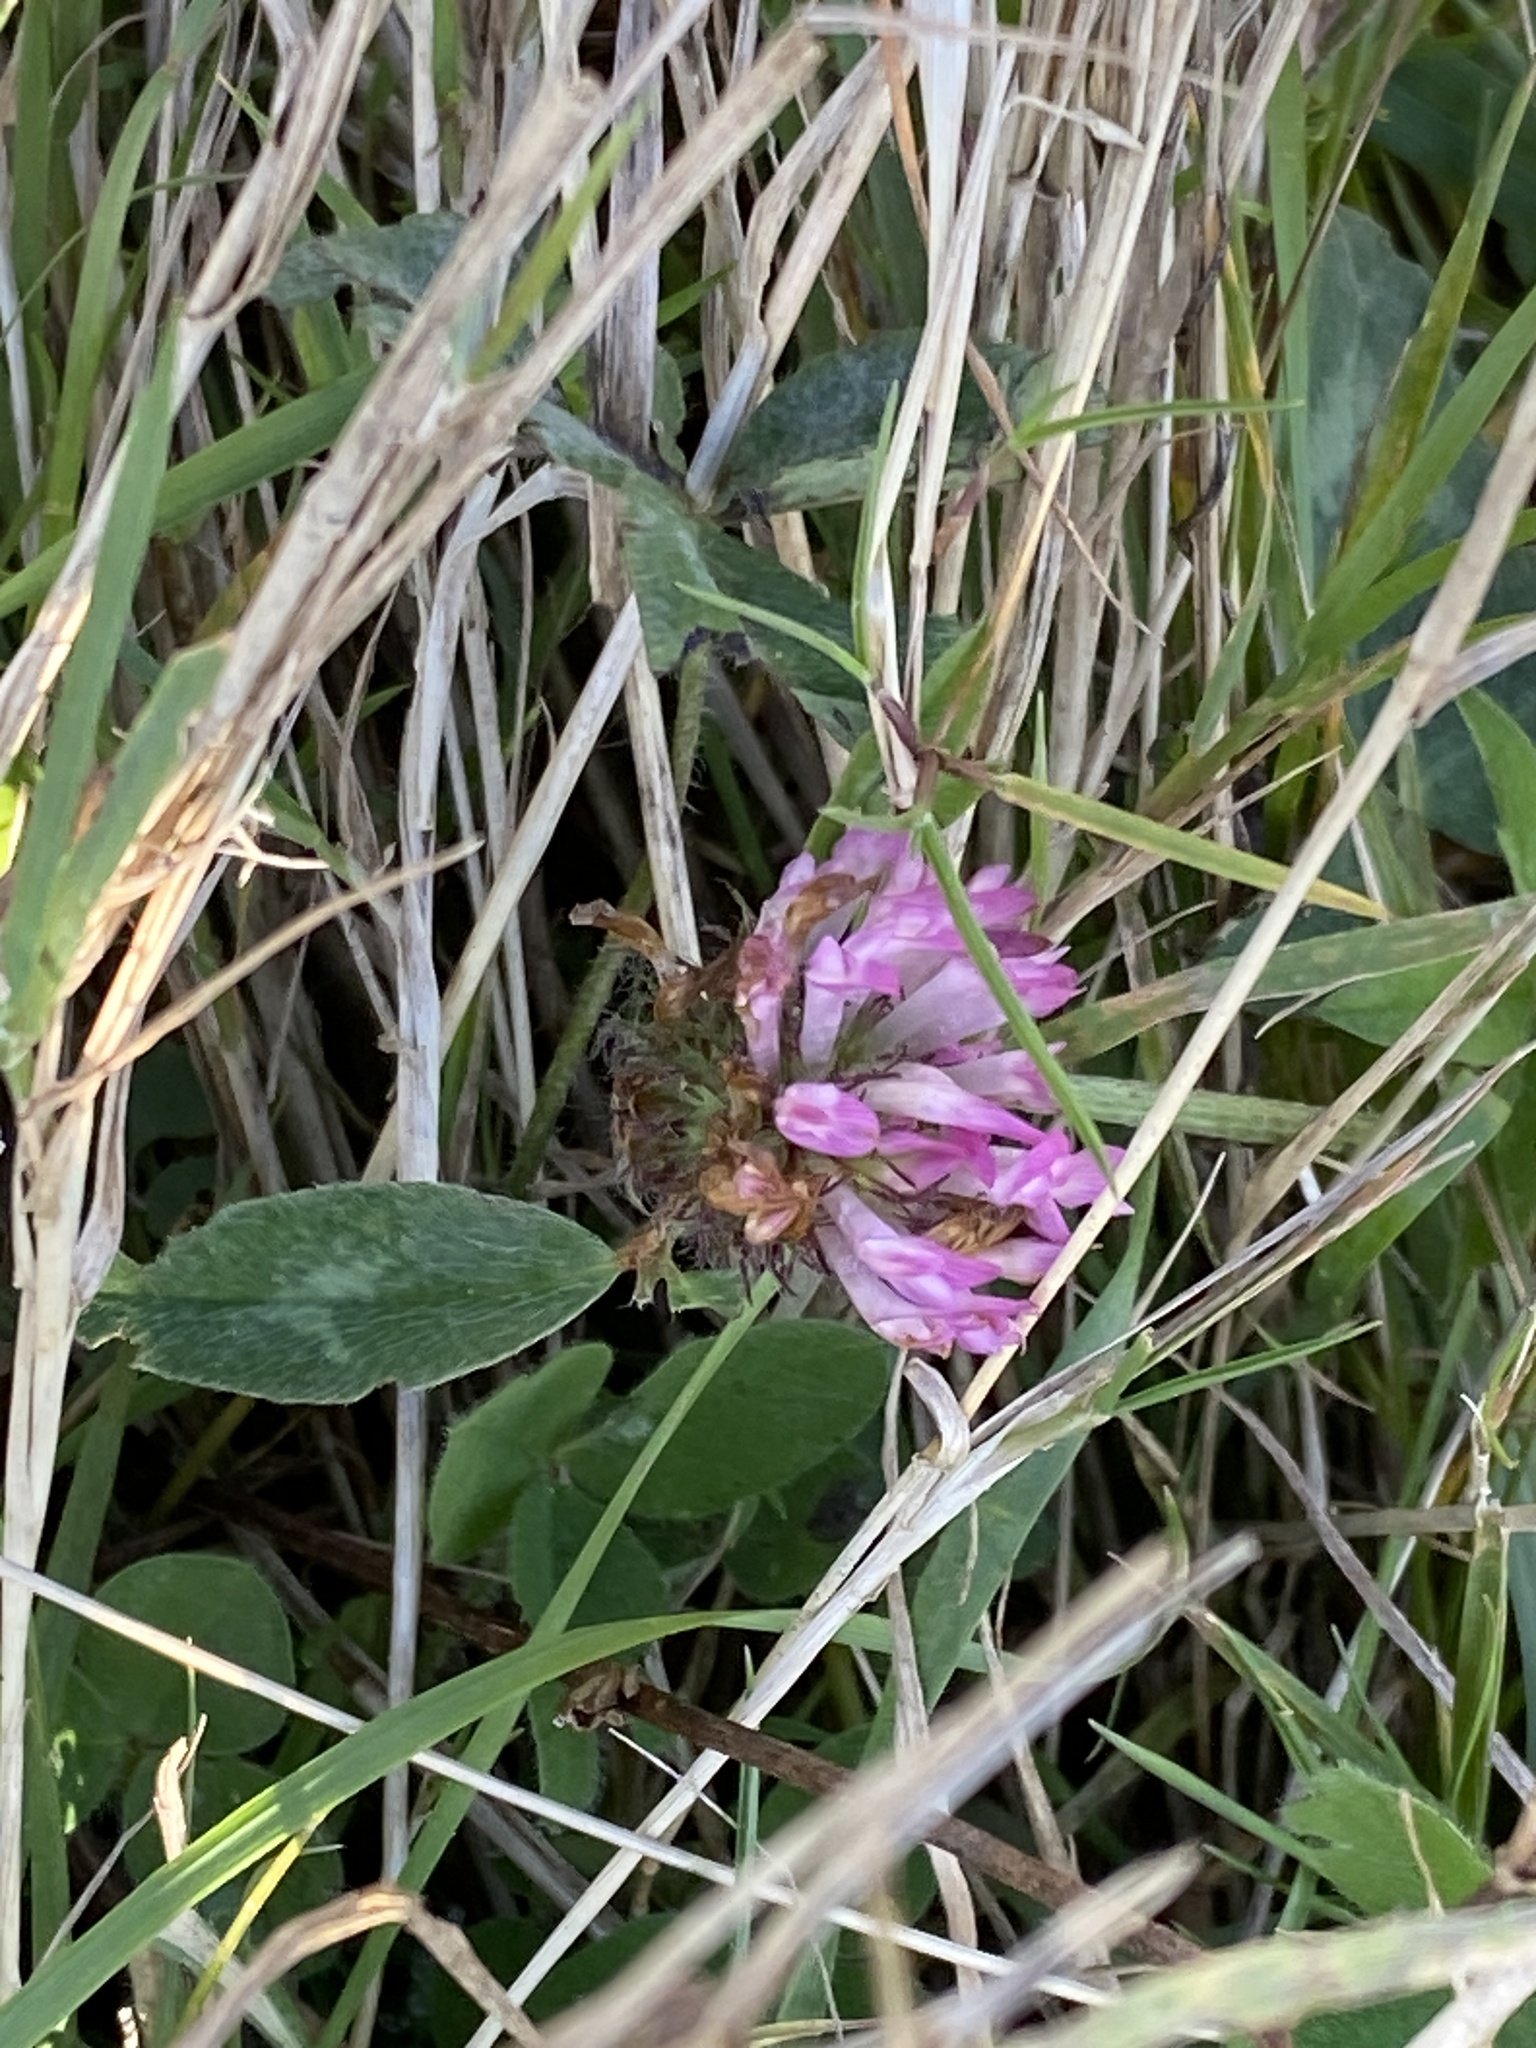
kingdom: Plantae
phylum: Tracheophyta
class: Magnoliopsida
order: Fabales
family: Fabaceae
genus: Trifolium
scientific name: Trifolium pratense
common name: Red clover
